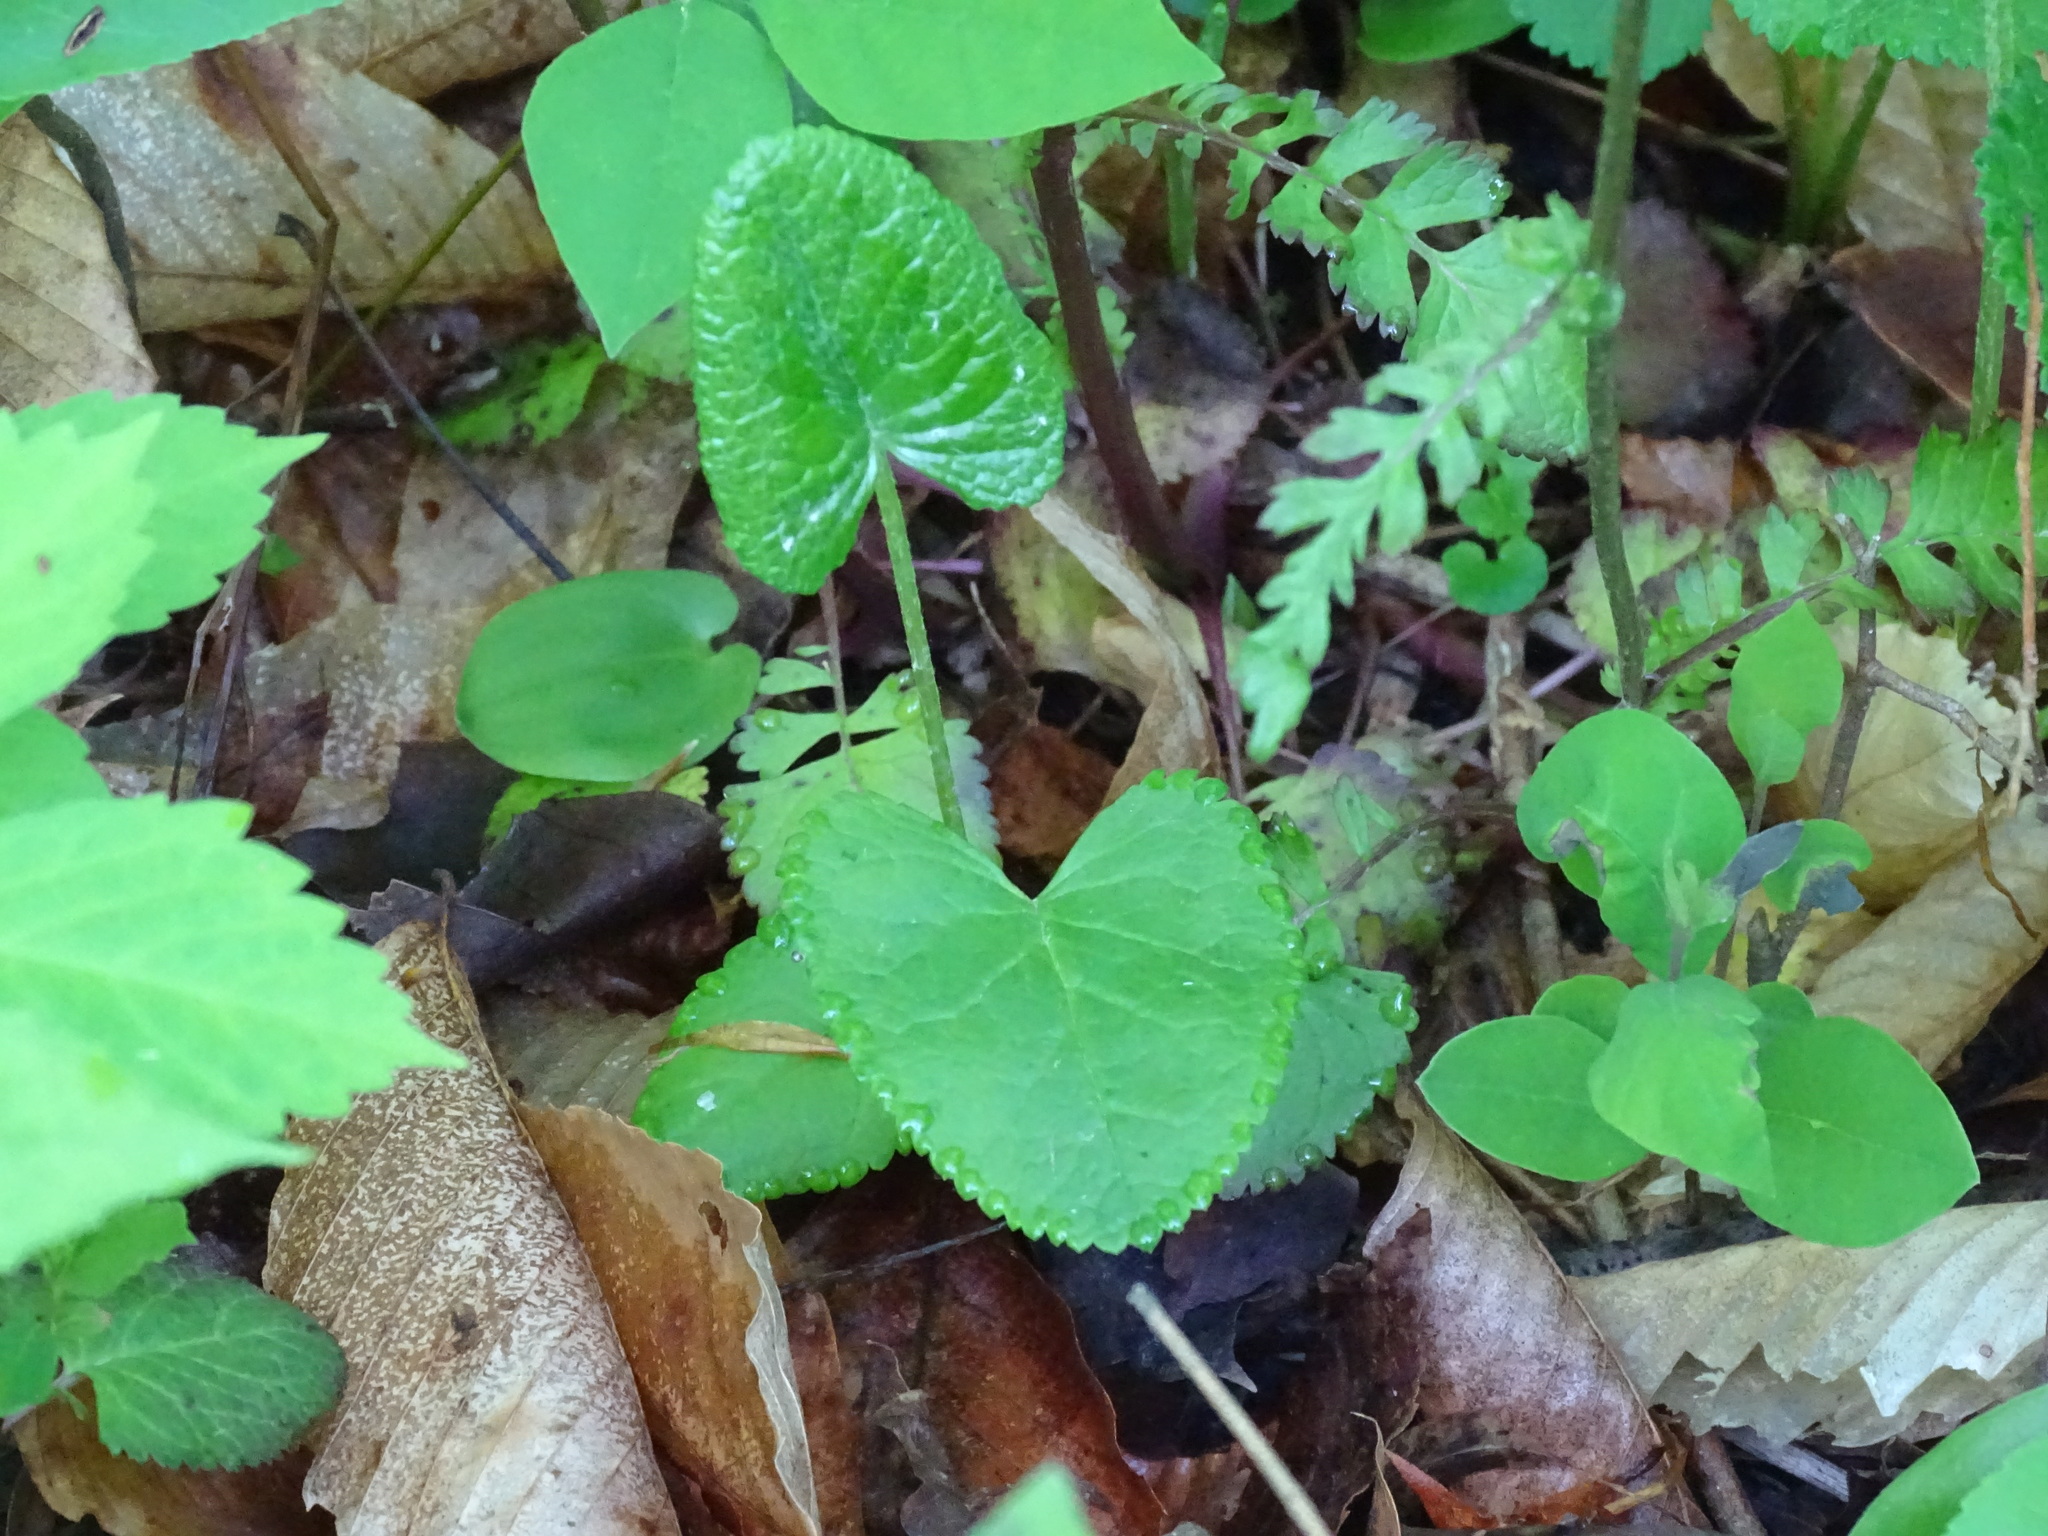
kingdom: Plantae
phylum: Tracheophyta
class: Magnoliopsida
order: Asterales
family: Asteraceae
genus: Packera
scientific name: Packera aurea
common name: Golden groundsel
